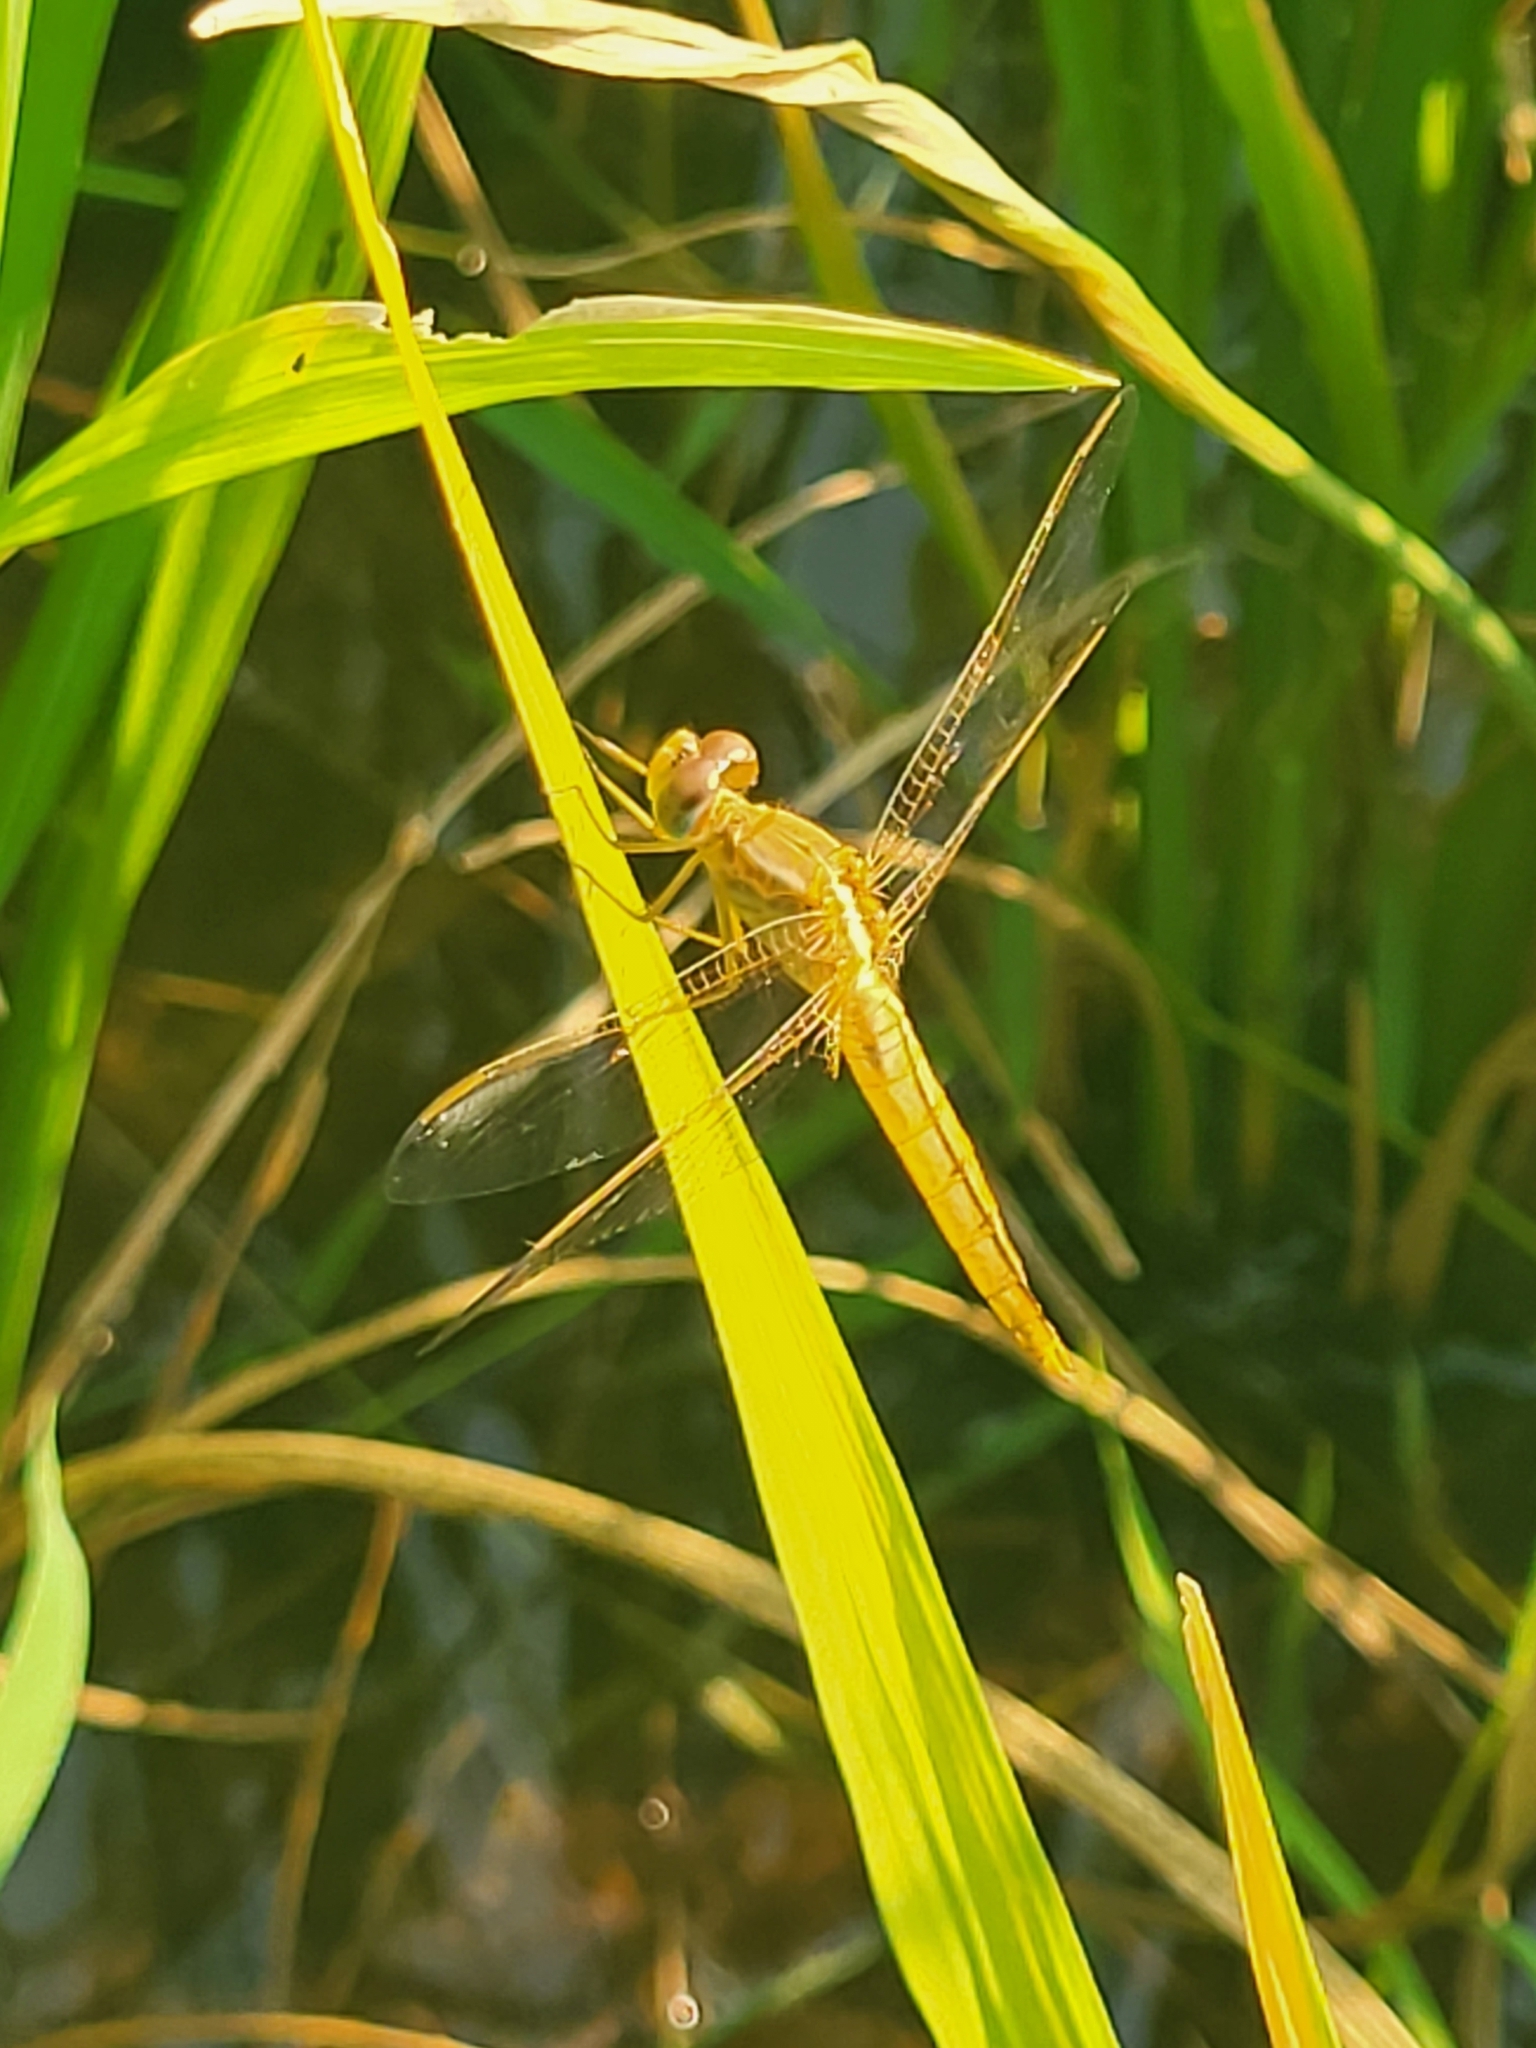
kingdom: Animalia
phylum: Arthropoda
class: Insecta
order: Odonata
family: Libellulidae
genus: Crocothemis
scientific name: Crocothemis servilia
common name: Scarlet skimmer
